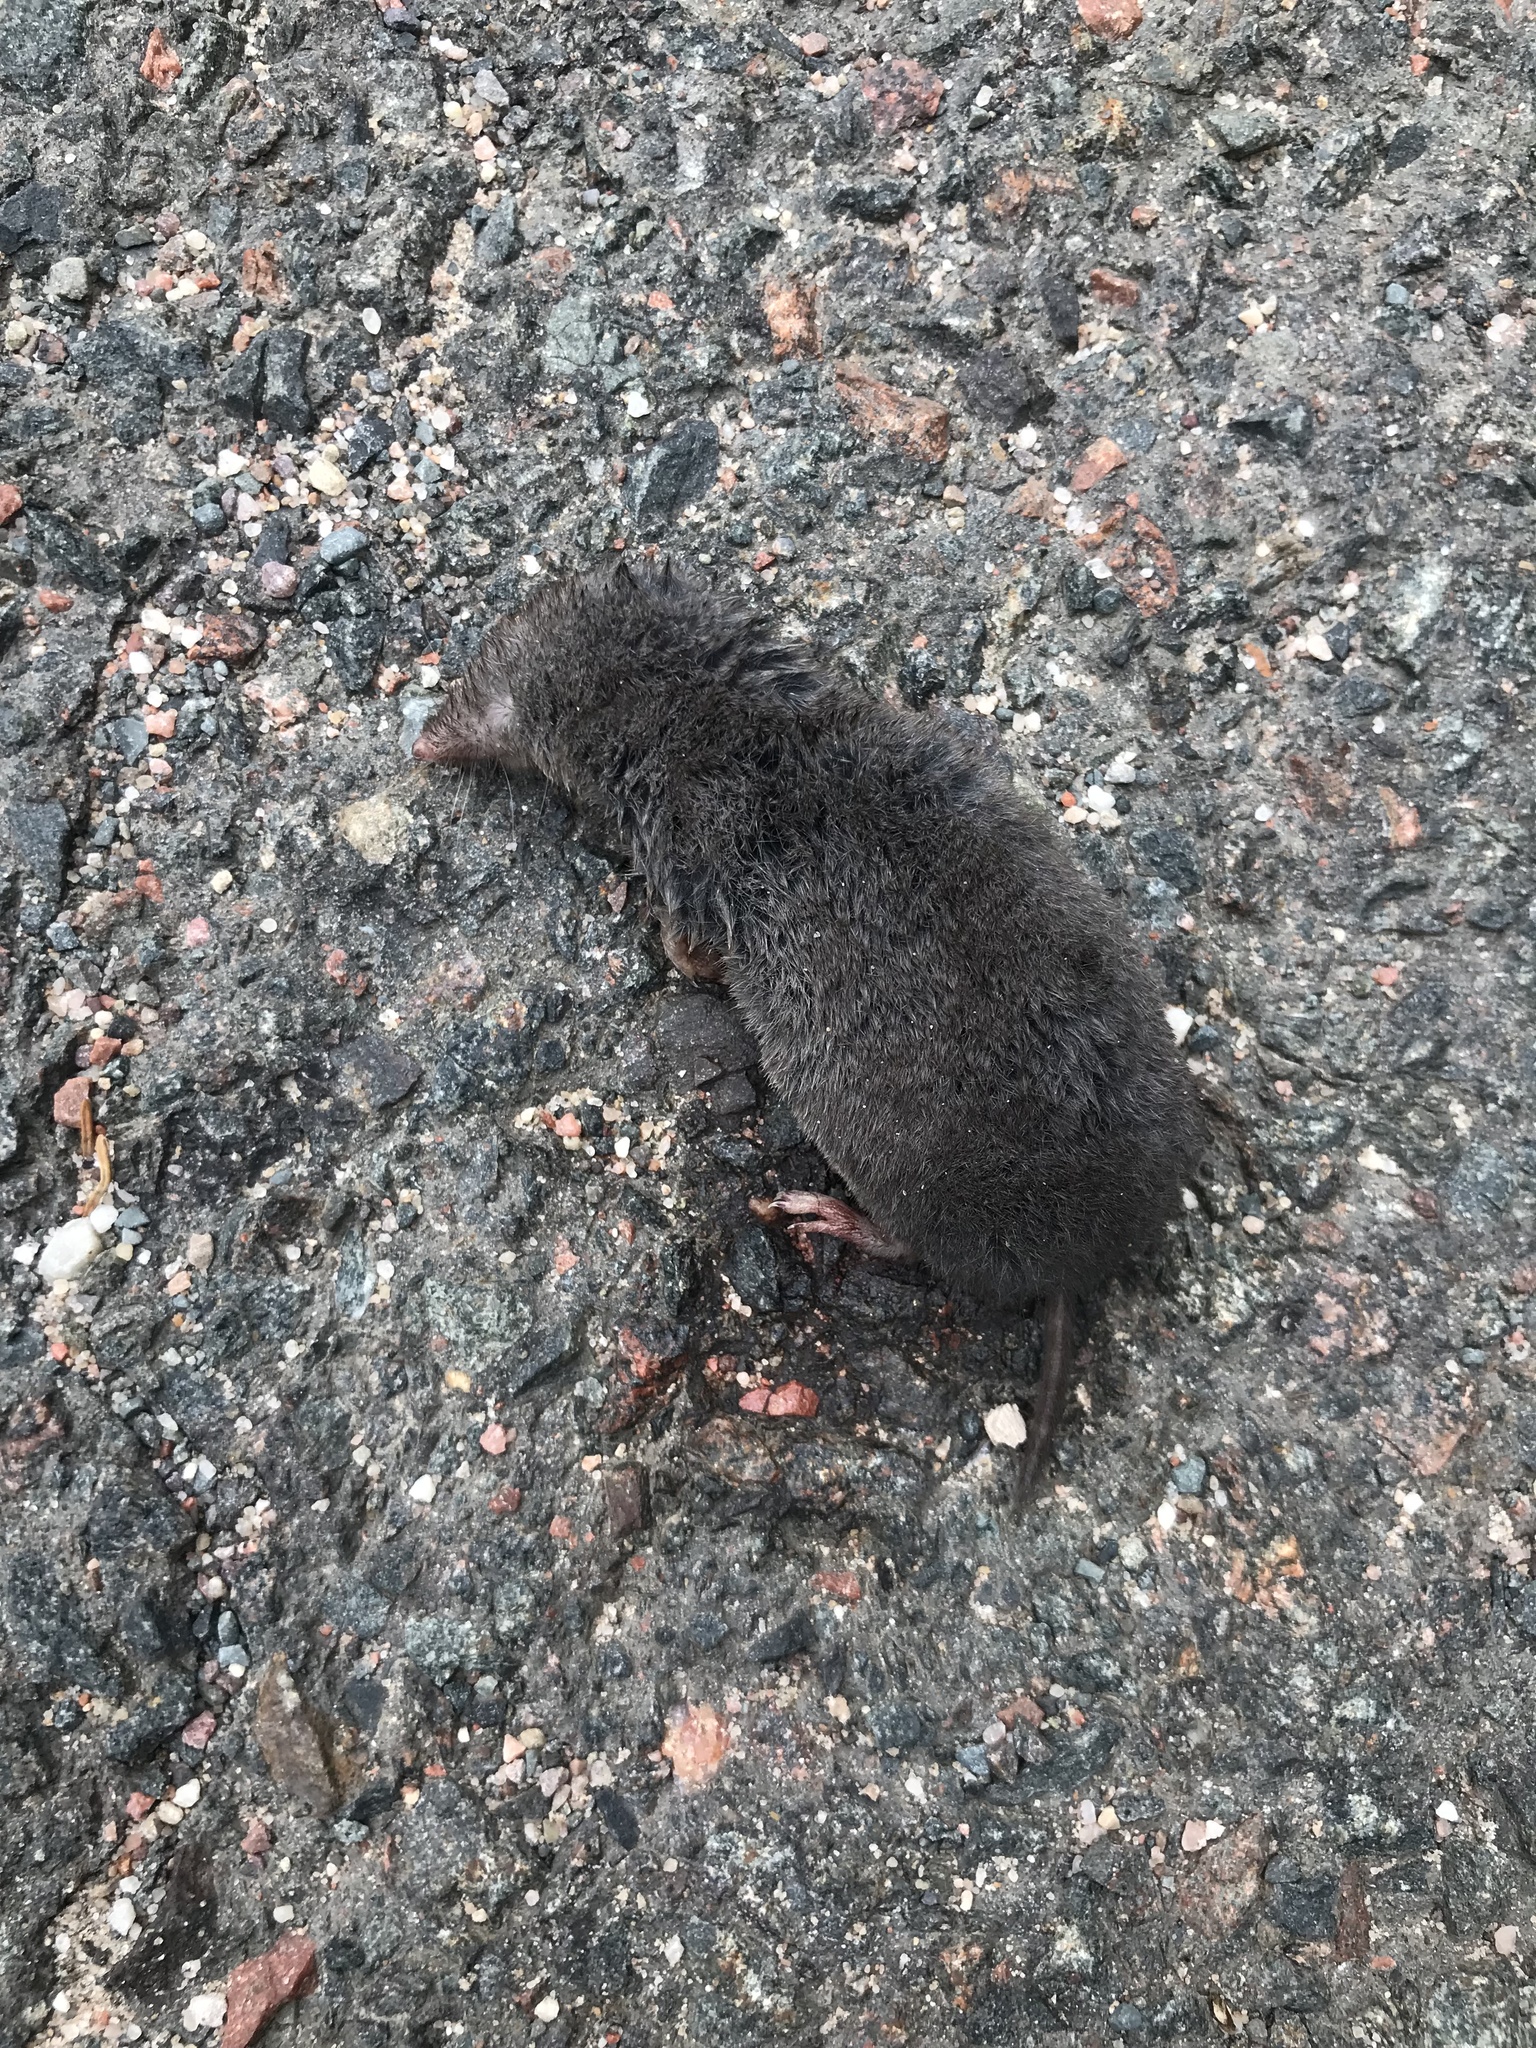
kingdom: Animalia
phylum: Chordata
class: Mammalia
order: Soricomorpha
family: Soricidae
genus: Blarina
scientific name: Blarina brevicauda
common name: Northern short-tailed shrew
